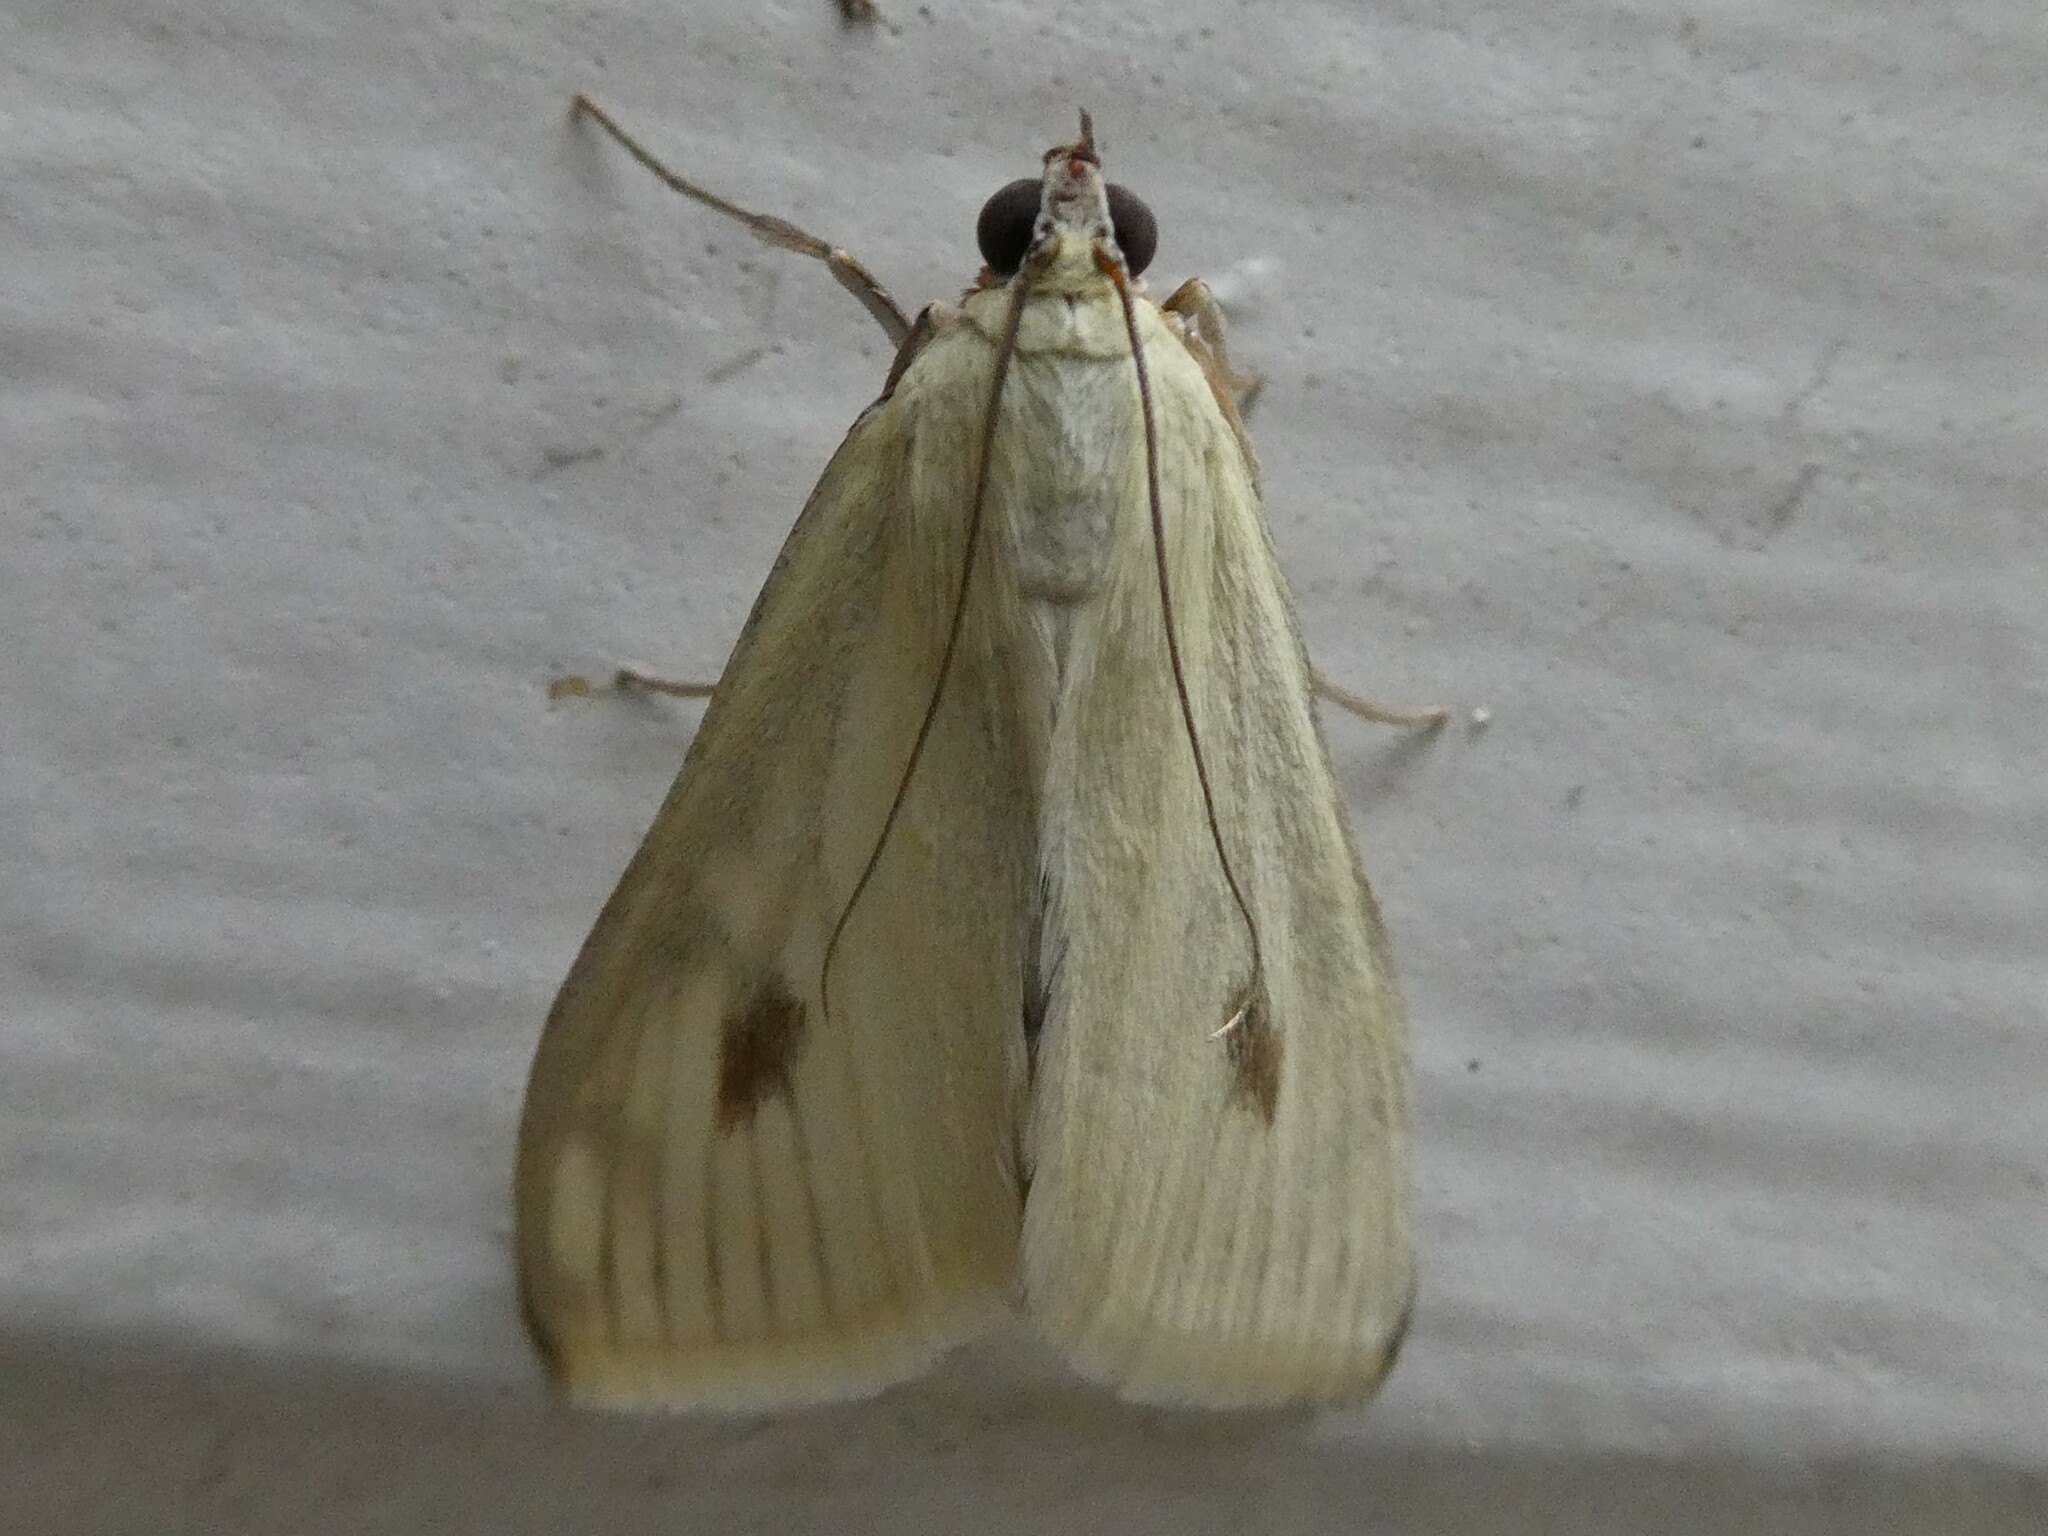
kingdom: Animalia
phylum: Arthropoda
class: Insecta
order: Lepidoptera
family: Crambidae
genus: Sitochroa
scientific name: Sitochroa palealis
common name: Greenish-yellow sitochroa moth
